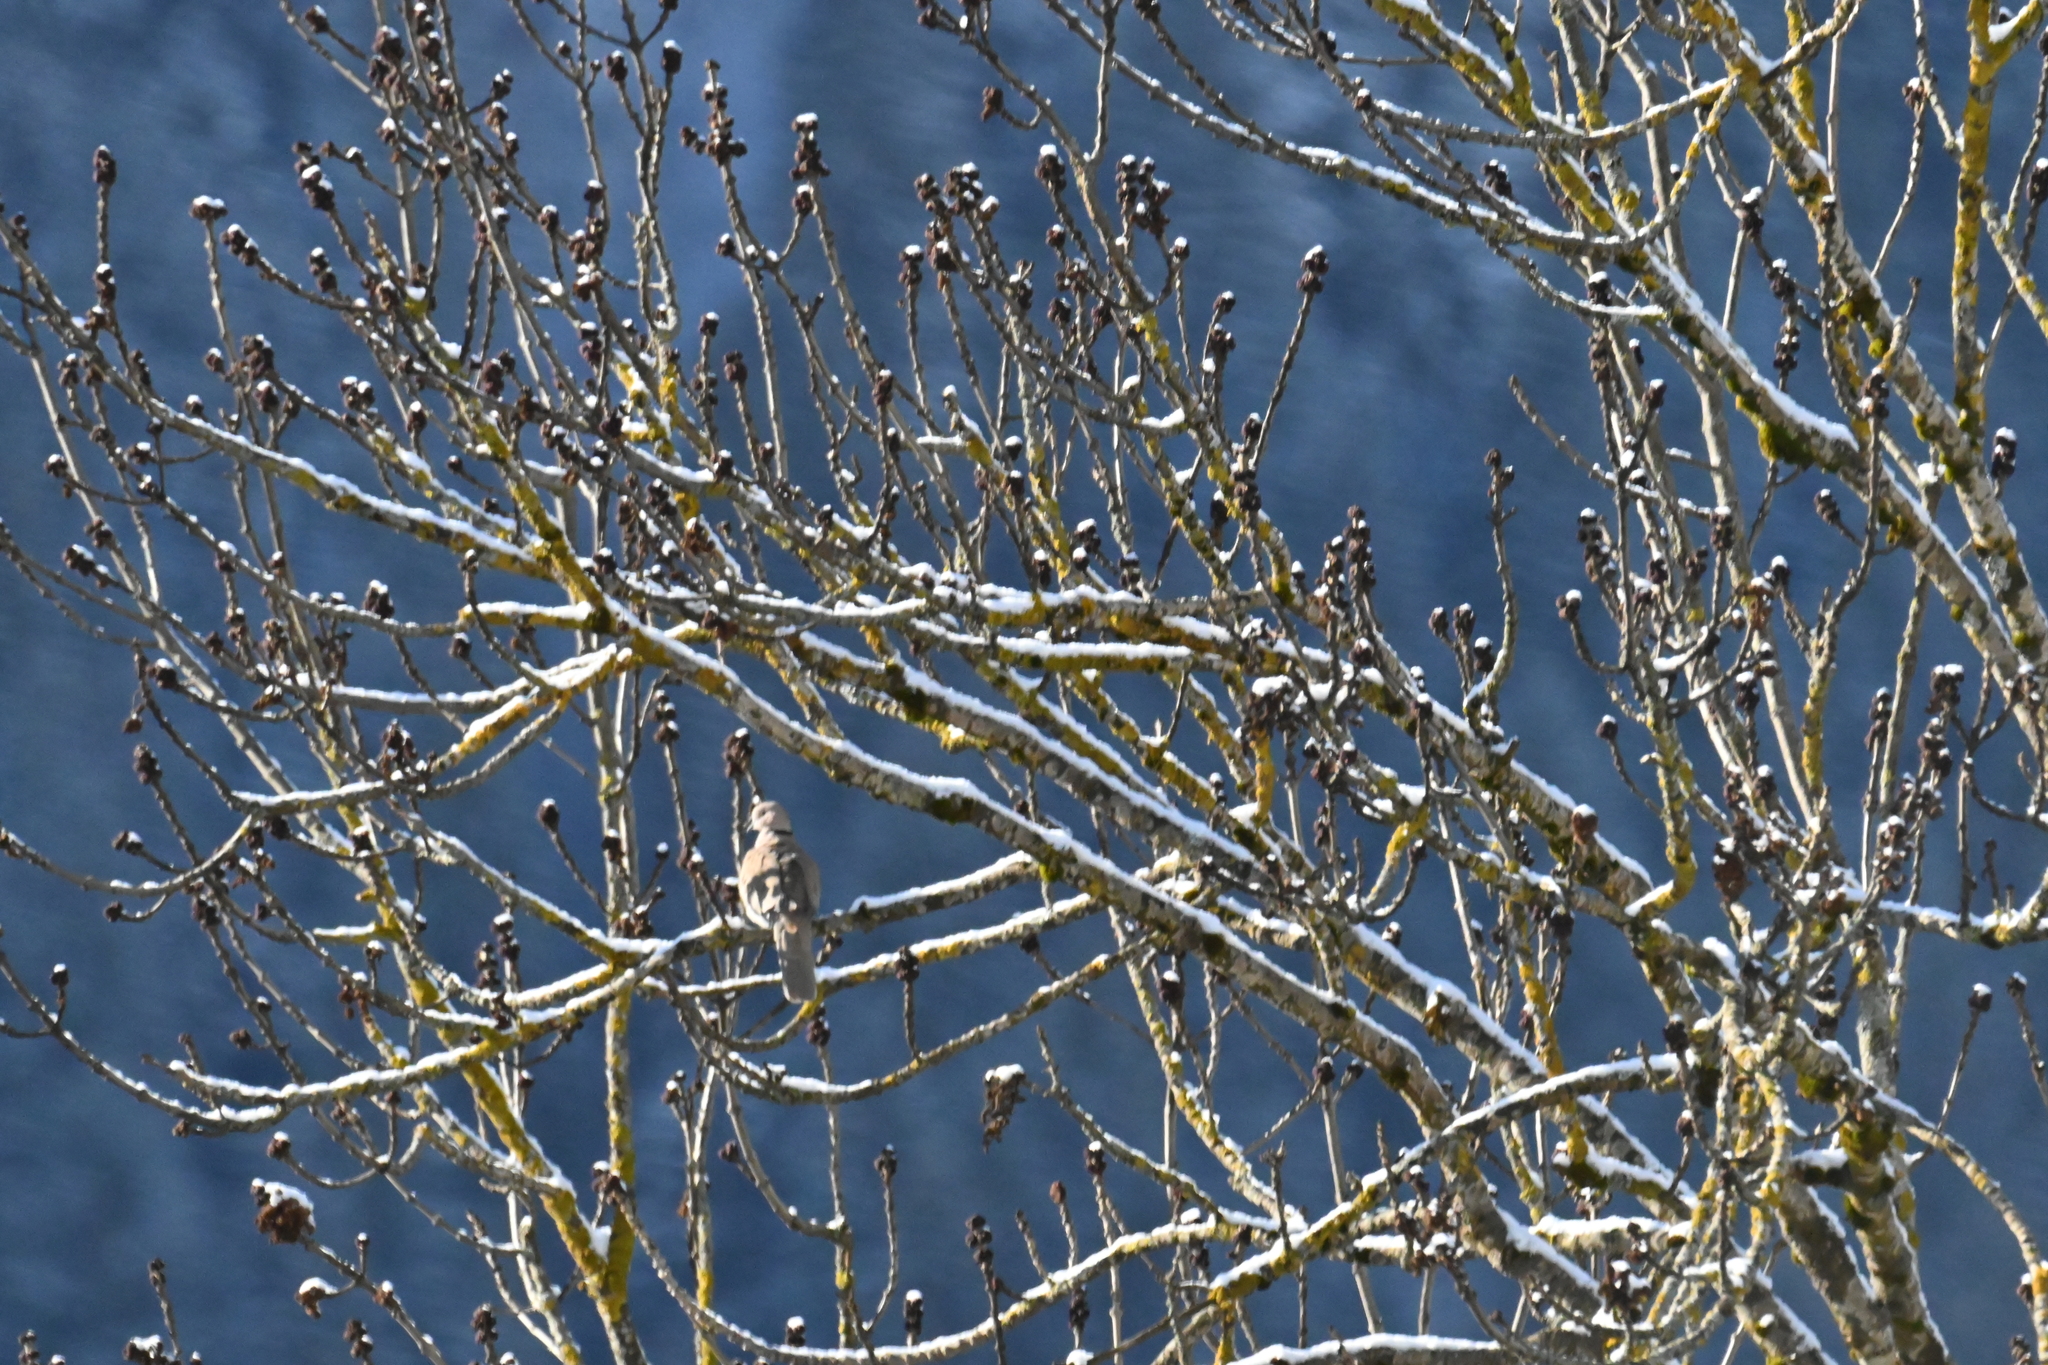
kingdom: Animalia
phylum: Chordata
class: Aves
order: Columbiformes
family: Columbidae
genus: Streptopelia
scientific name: Streptopelia decaocto
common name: Eurasian collared dove
